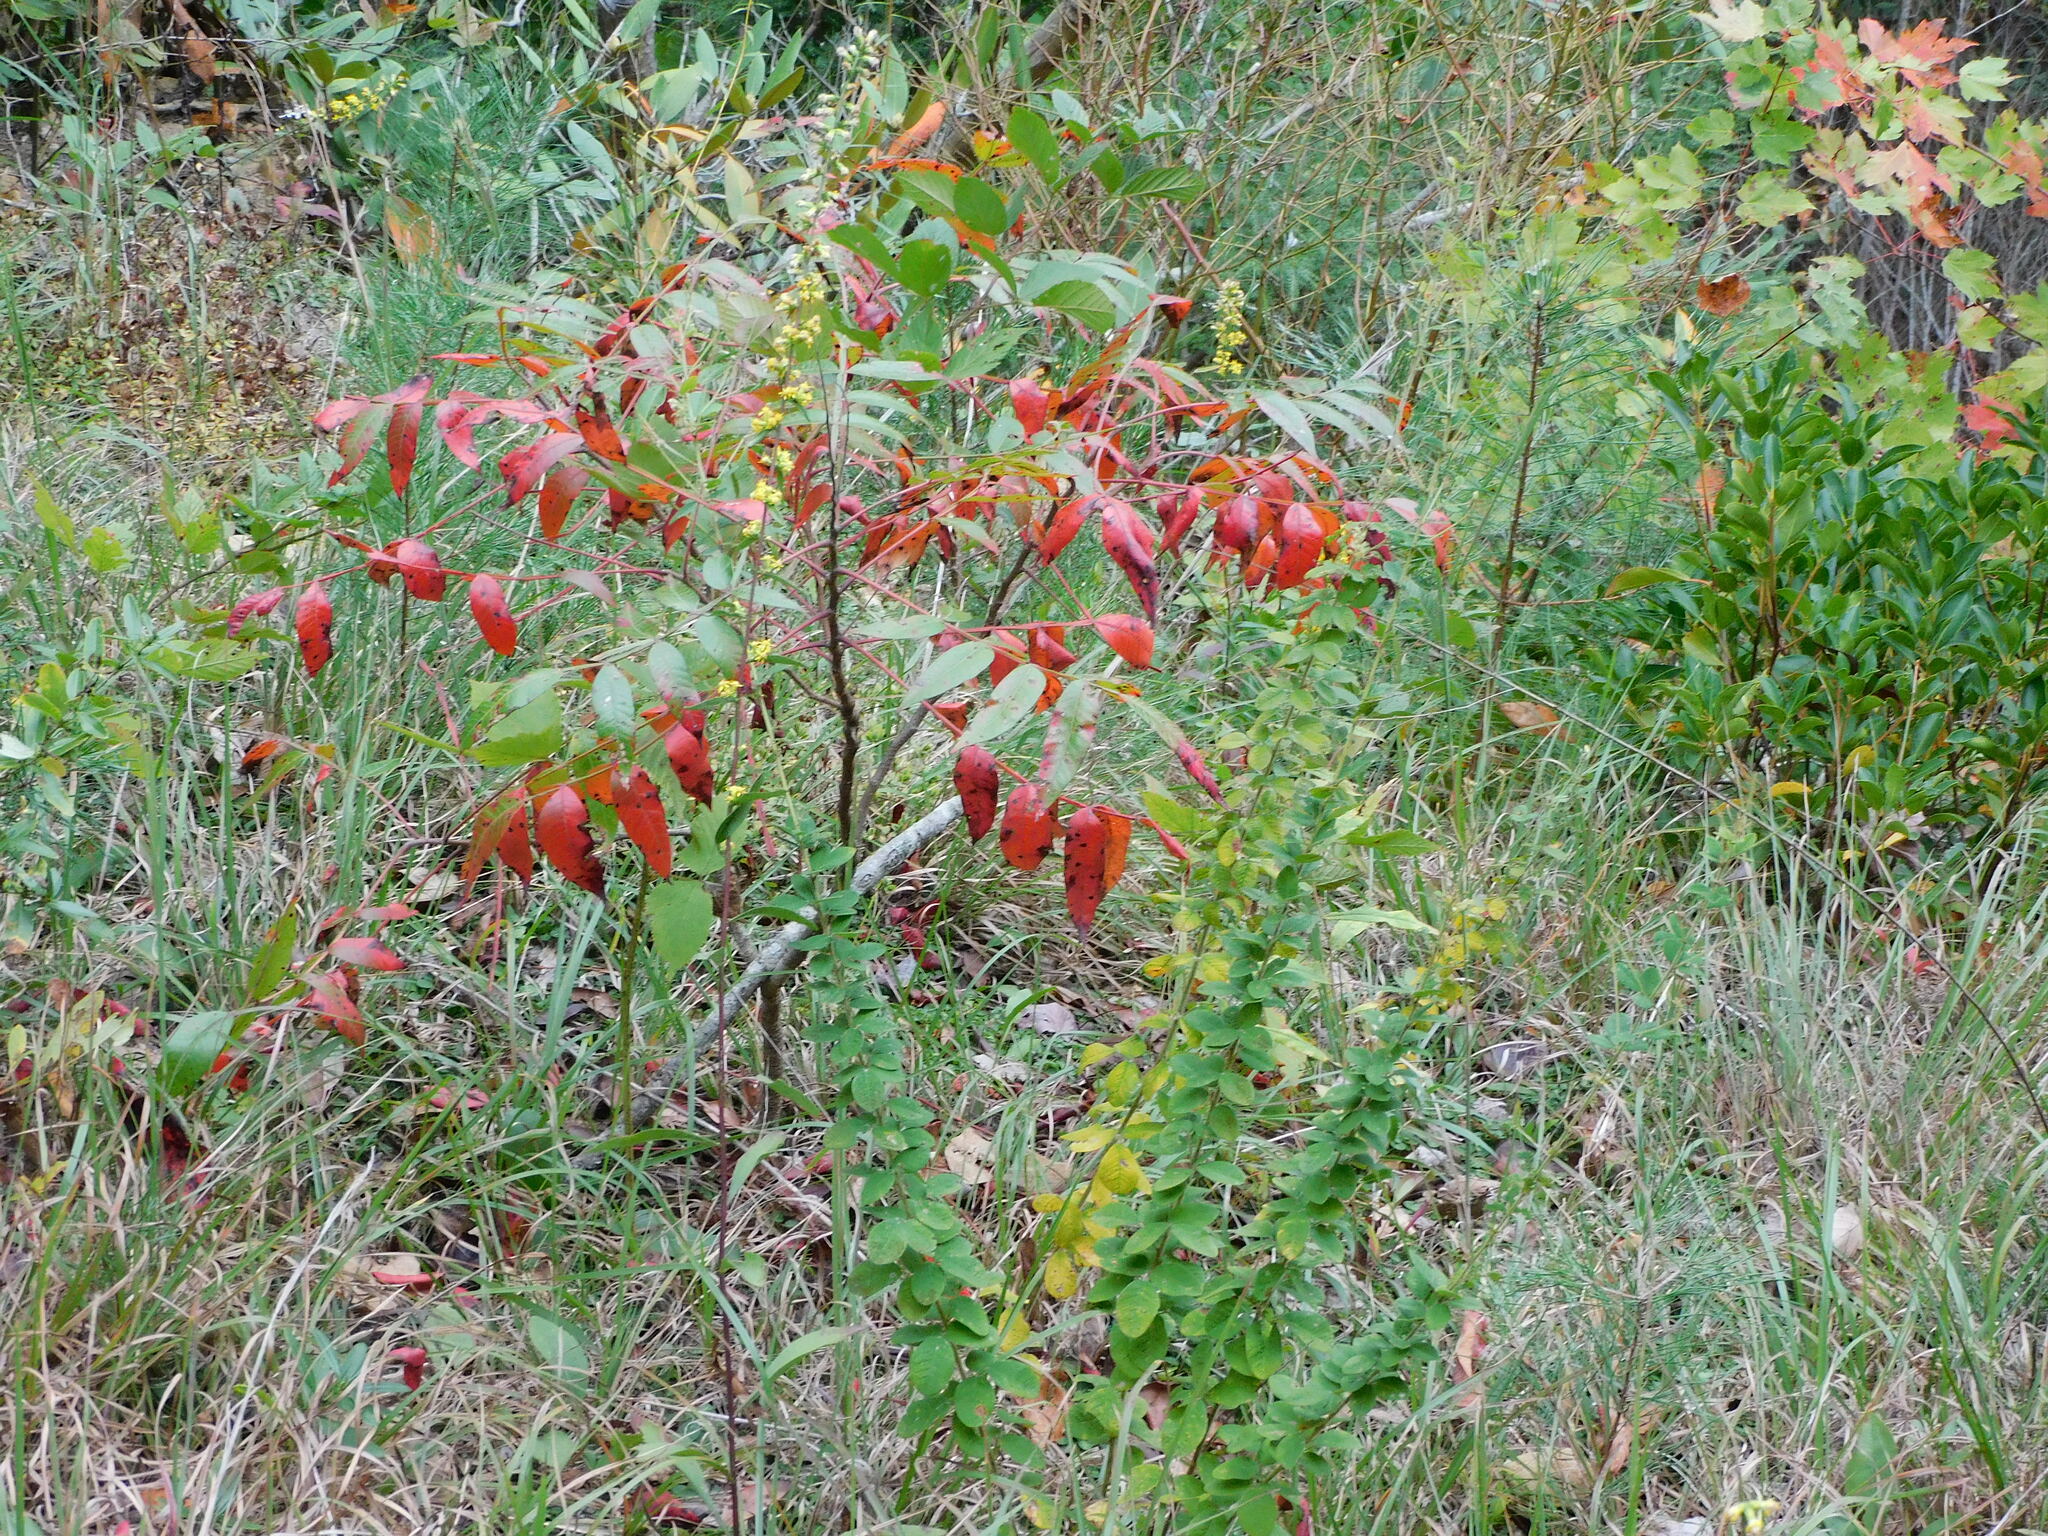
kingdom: Plantae
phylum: Tracheophyta
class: Magnoliopsida
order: Sapindales
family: Anacardiaceae
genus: Rhus
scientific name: Rhus copallina
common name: Shining sumac
